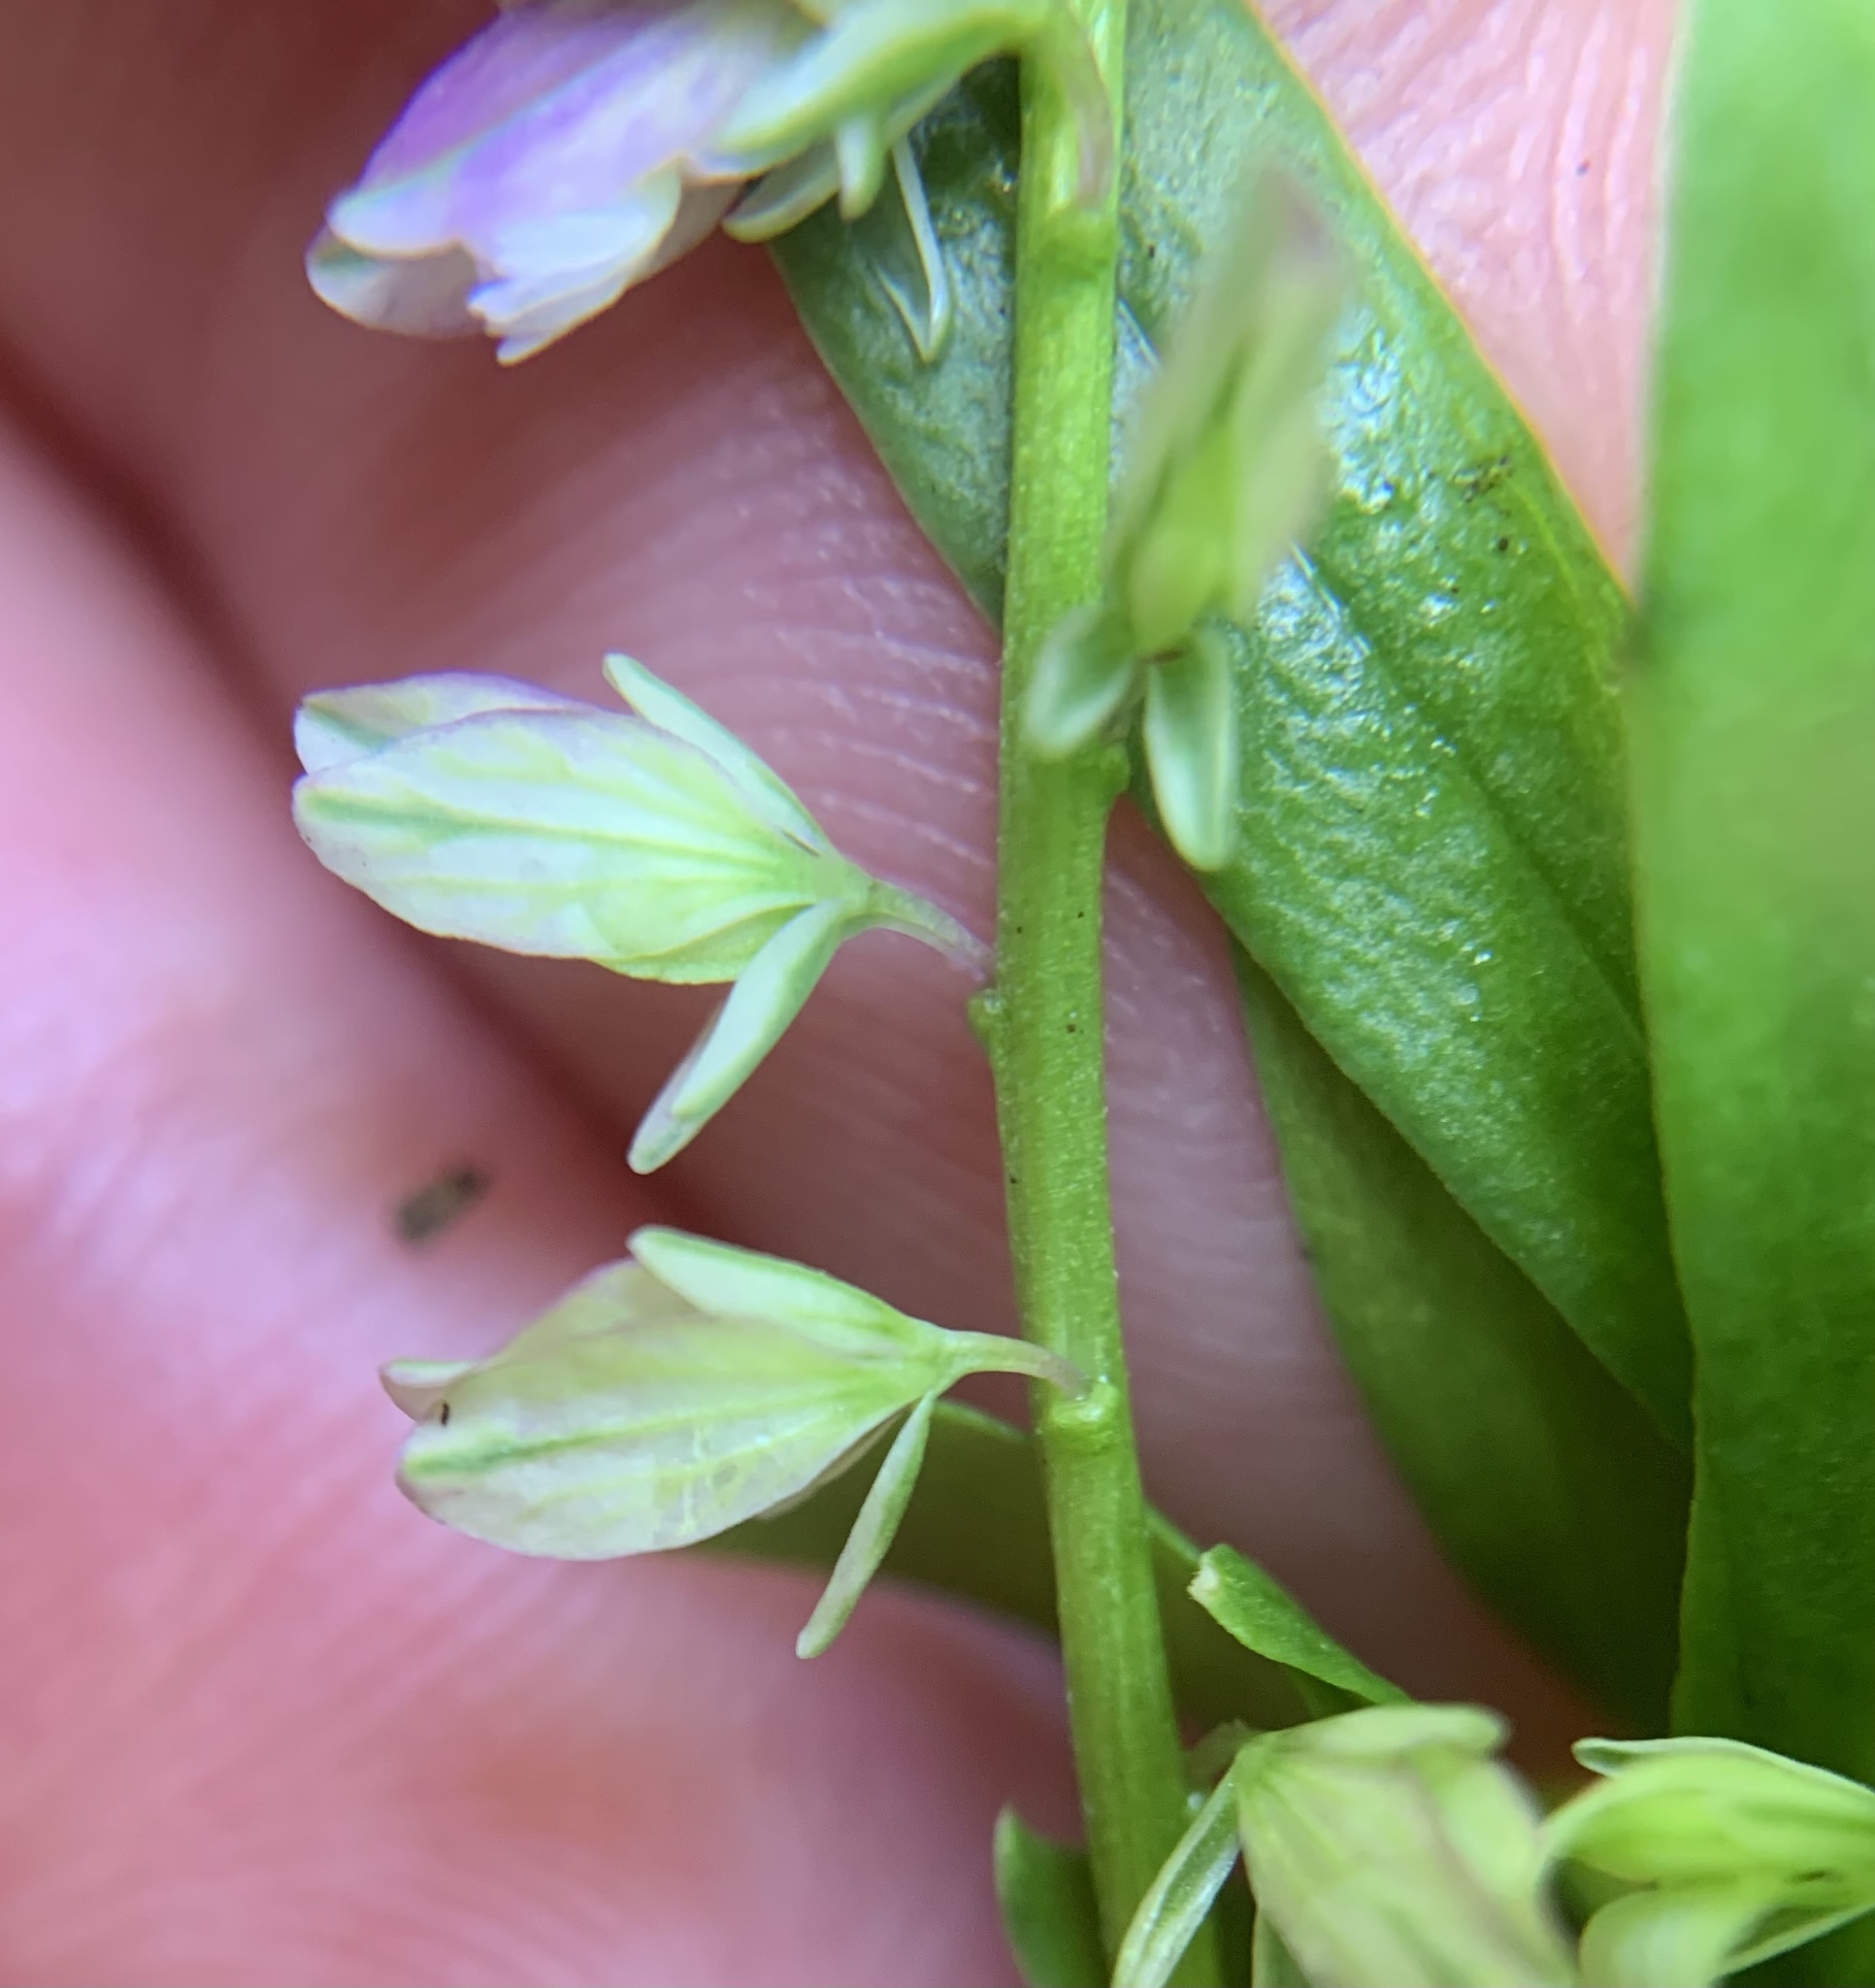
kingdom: Plantae
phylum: Tracheophyta
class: Magnoliopsida
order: Fabales
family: Polygalaceae
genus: Polygala
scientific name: Polygala comosa
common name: Tufted milkwort
